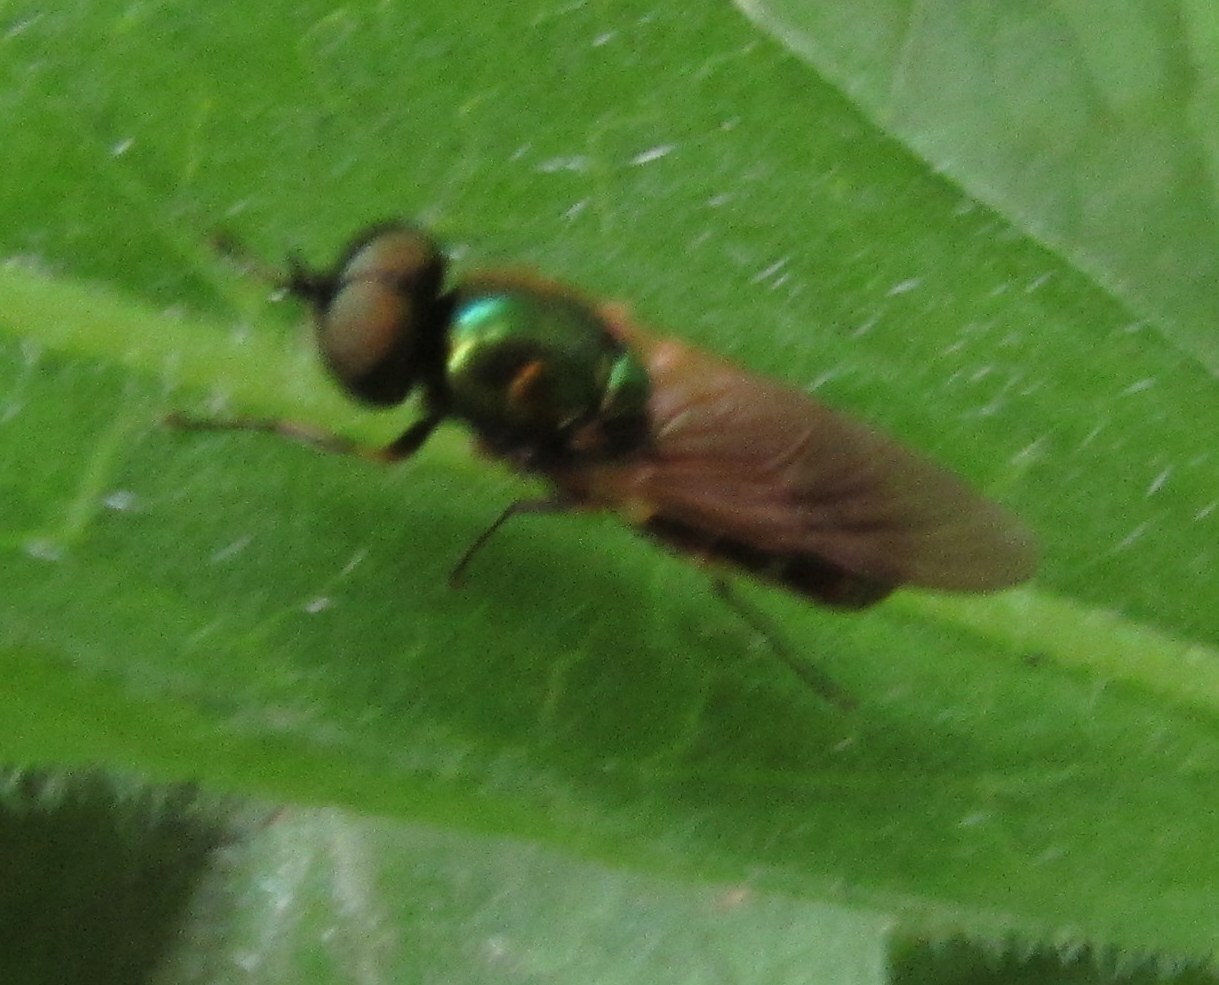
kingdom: Animalia
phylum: Arthropoda
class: Insecta
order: Diptera
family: Stratiomyidae
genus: Chloromyia
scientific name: Chloromyia formosa
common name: Soldier fly
